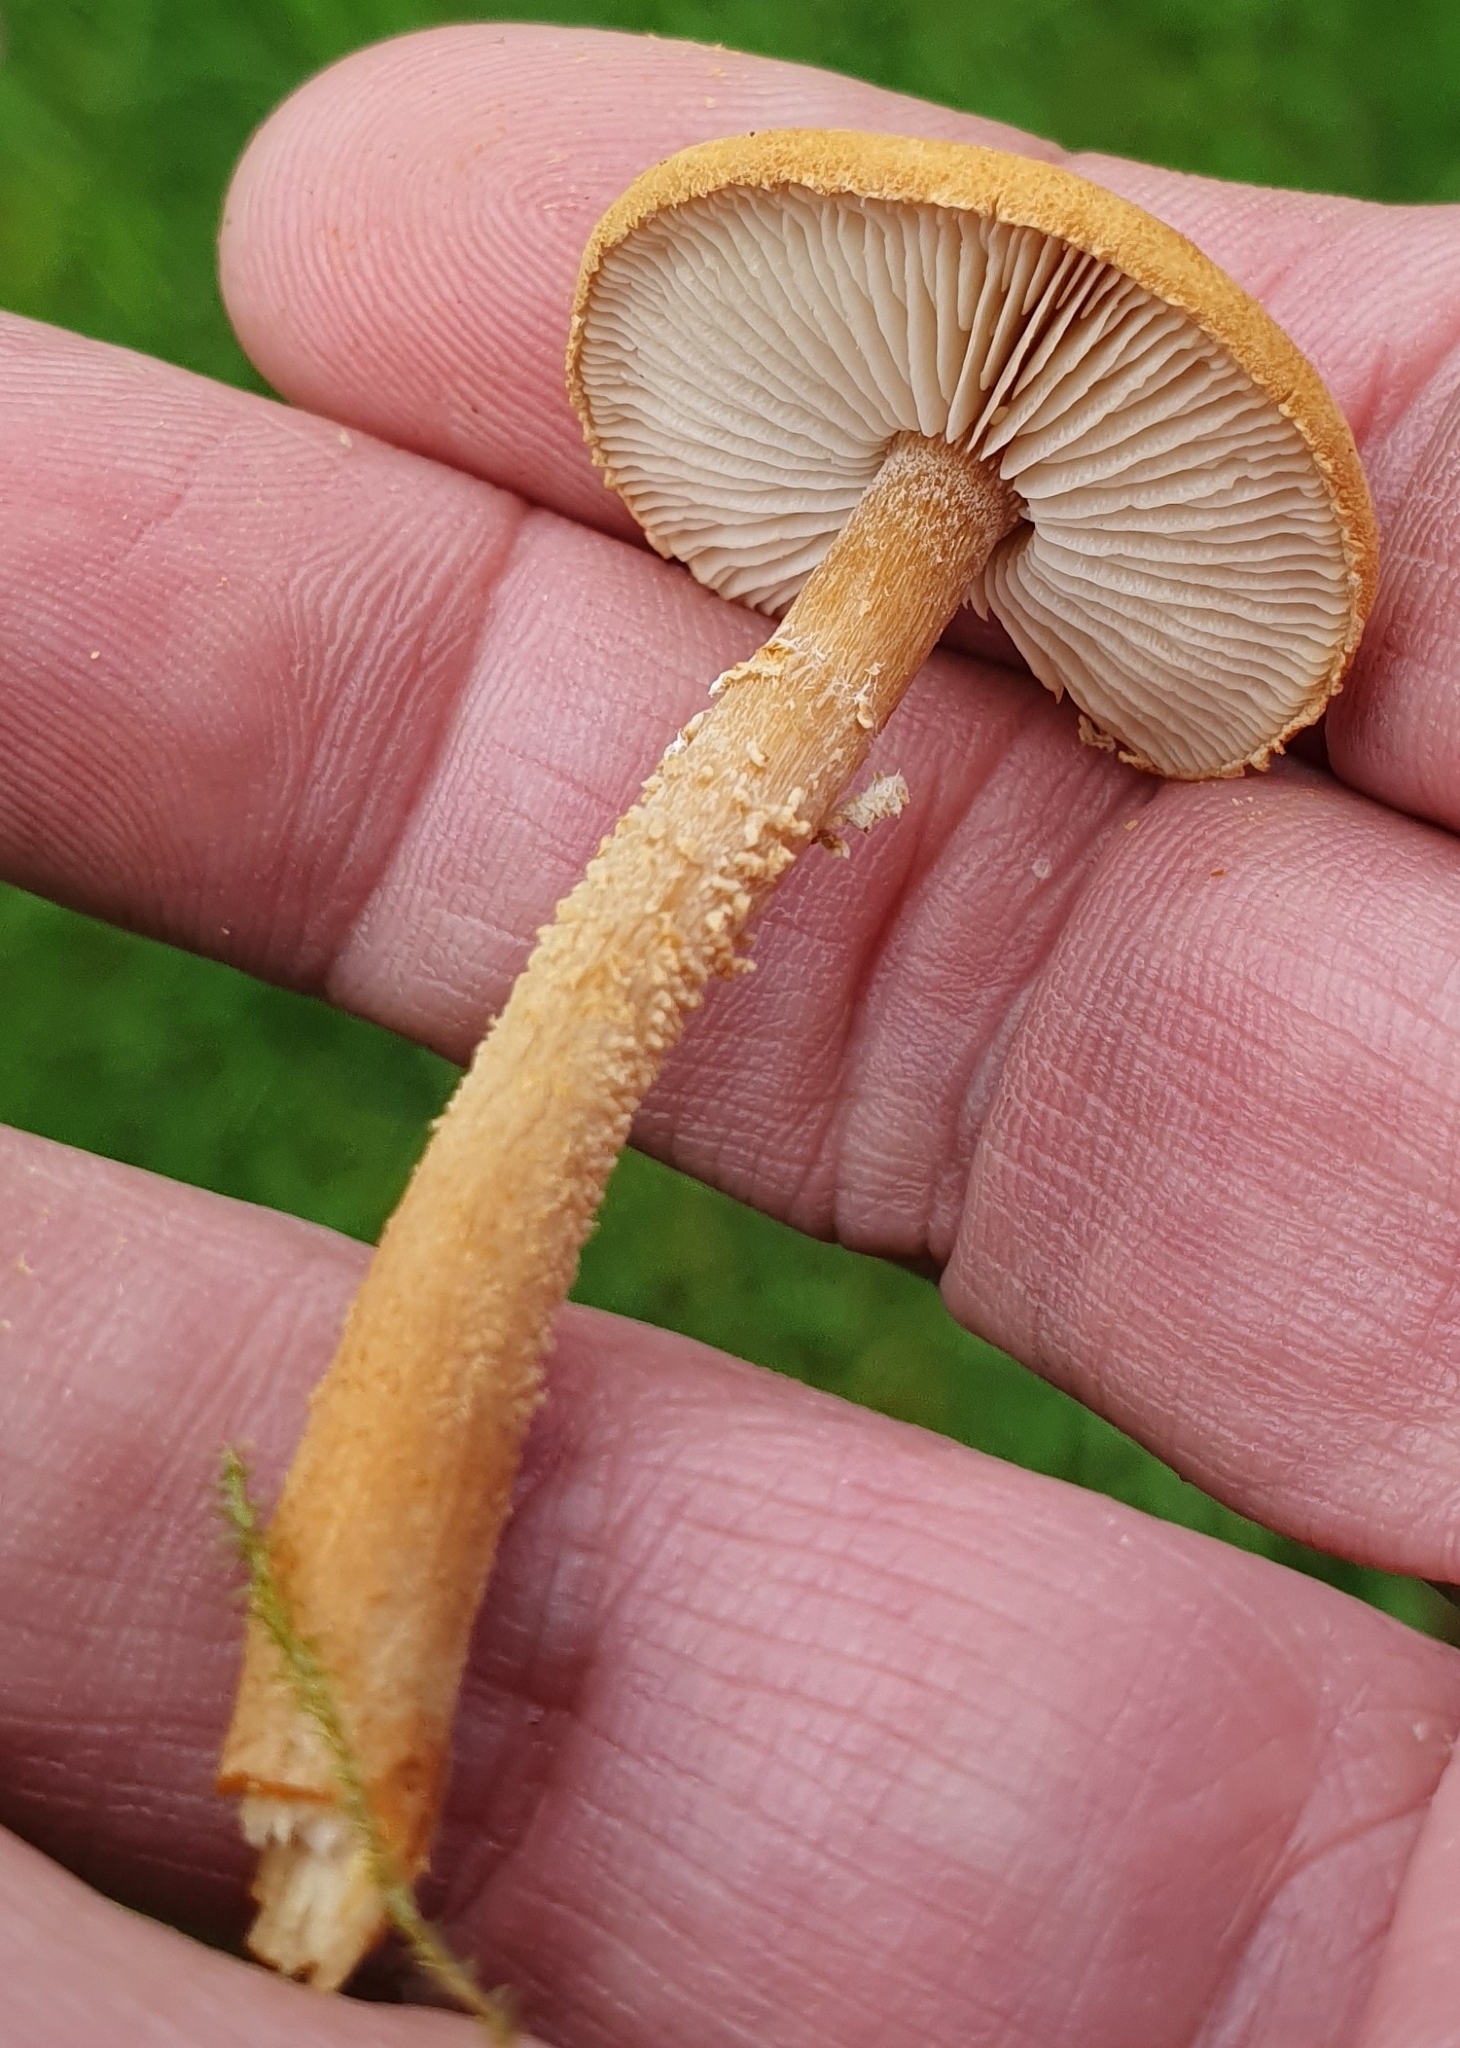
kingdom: Fungi
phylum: Basidiomycota
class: Agaricomycetes
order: Agaricales
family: Tricholomataceae
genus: Cystoderma
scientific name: Cystoderma amianthinum
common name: Earthy powdercap
